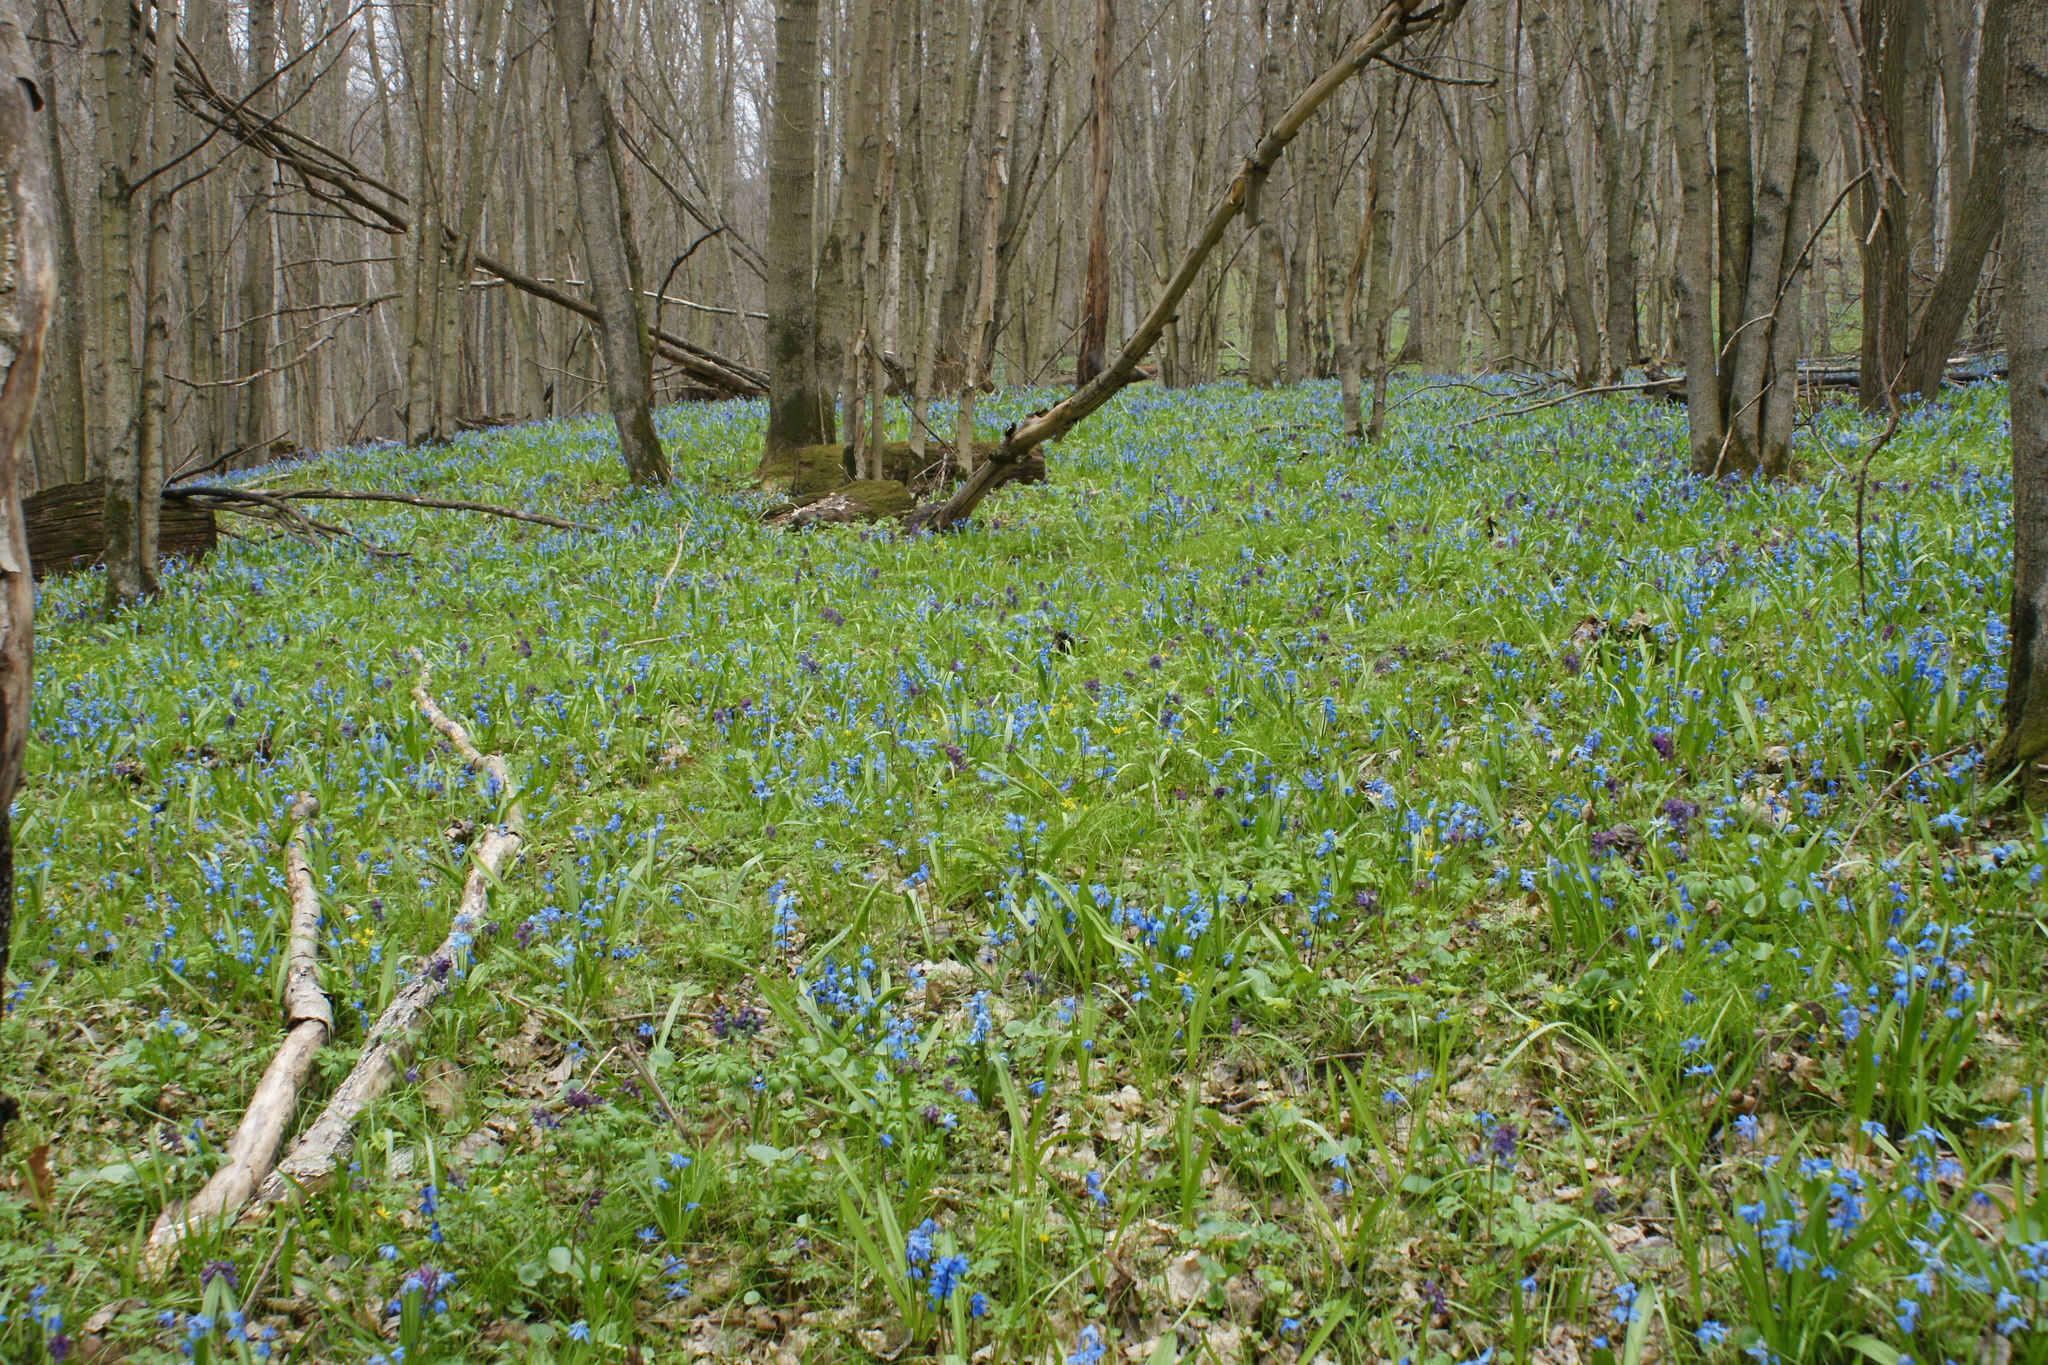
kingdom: Plantae
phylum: Tracheophyta
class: Liliopsida
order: Asparagales
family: Asparagaceae
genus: Scilla
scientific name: Scilla siberica
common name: Siberian squill
